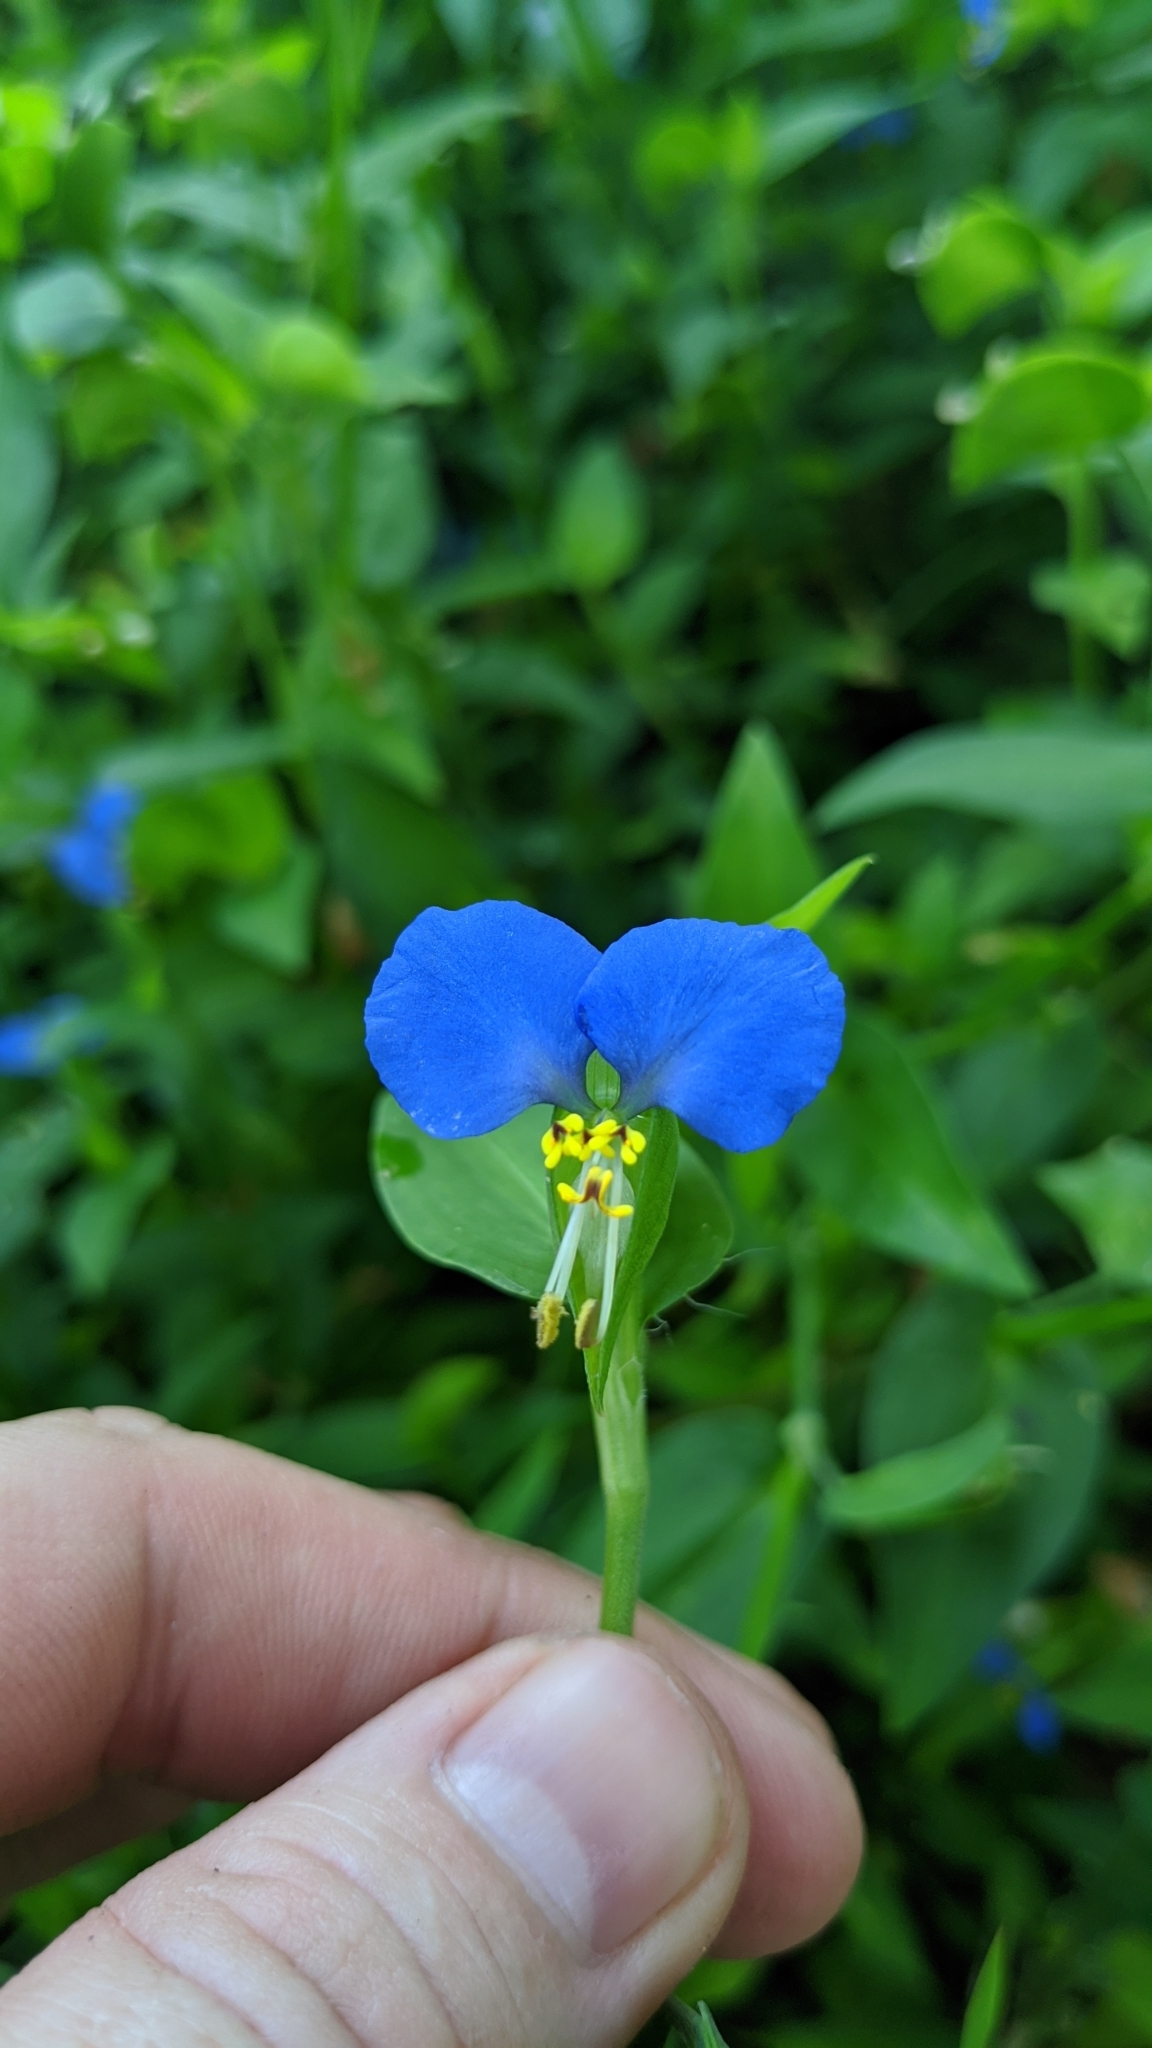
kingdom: Plantae
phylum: Tracheophyta
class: Liliopsida
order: Commelinales
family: Commelinaceae
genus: Commelina
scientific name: Commelina communis
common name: Asiatic dayflower
